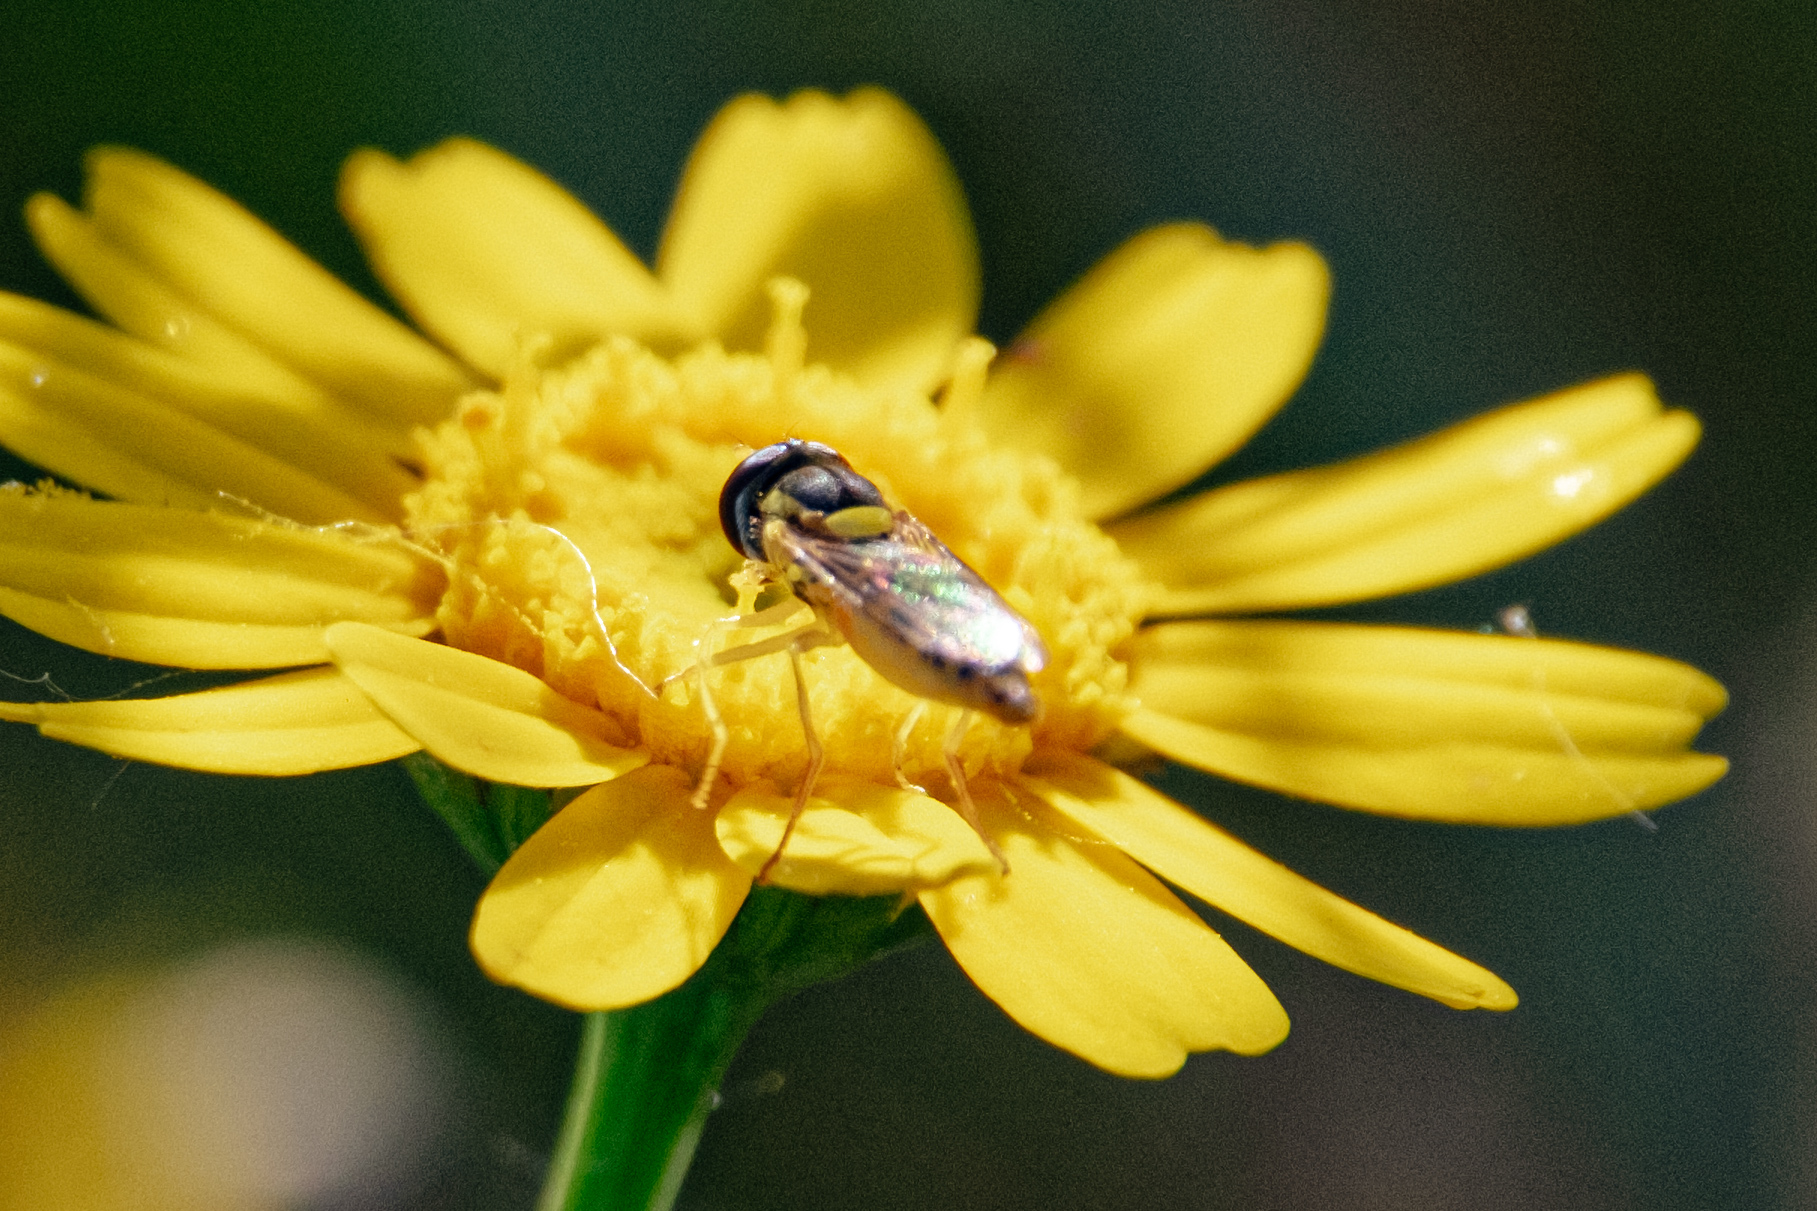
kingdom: Animalia
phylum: Arthropoda
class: Insecta
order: Diptera
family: Syrphidae
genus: Sphaerophoria
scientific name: Sphaerophoria
